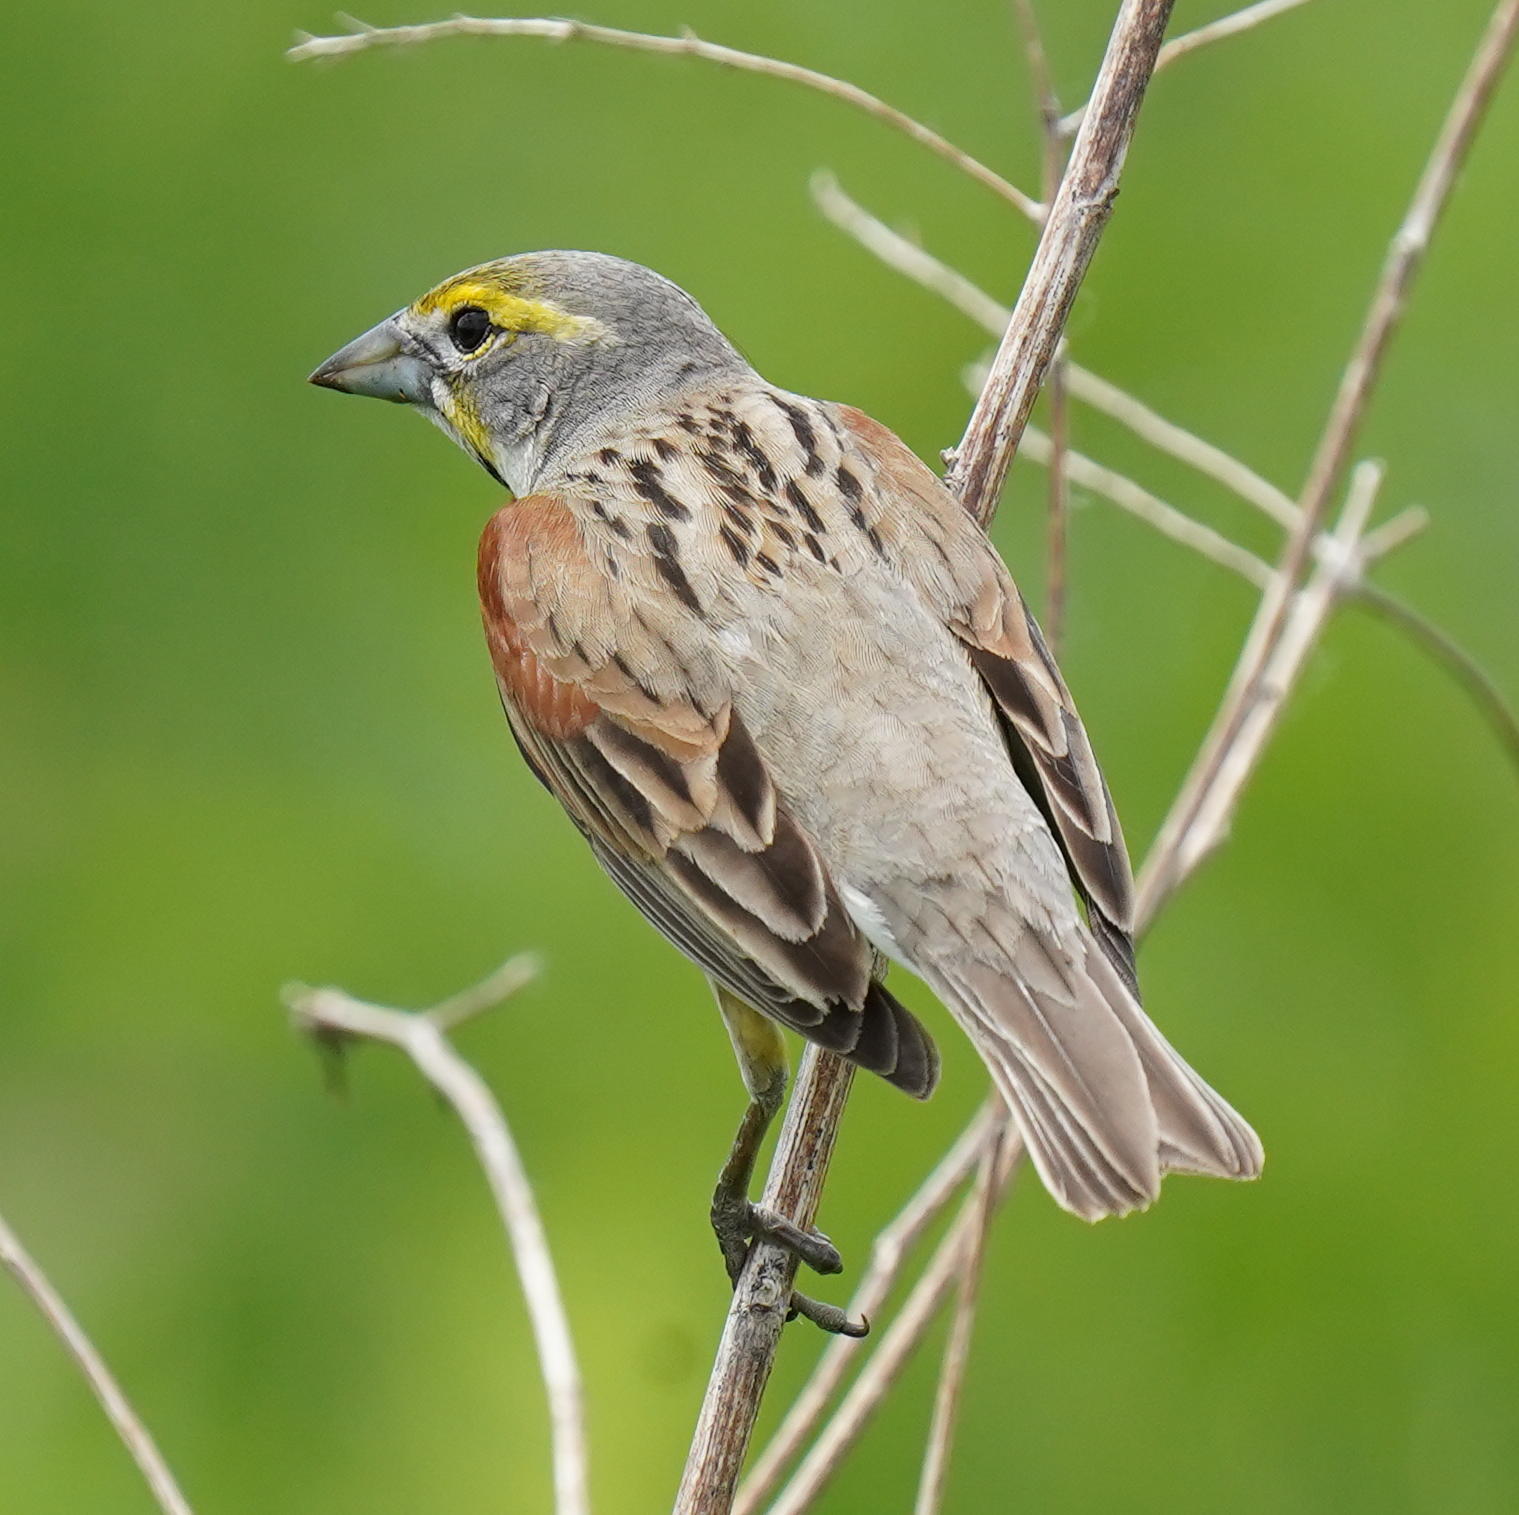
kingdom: Animalia
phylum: Chordata
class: Aves
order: Passeriformes
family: Cardinalidae
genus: Spiza
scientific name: Spiza americana
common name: Dickcissel
